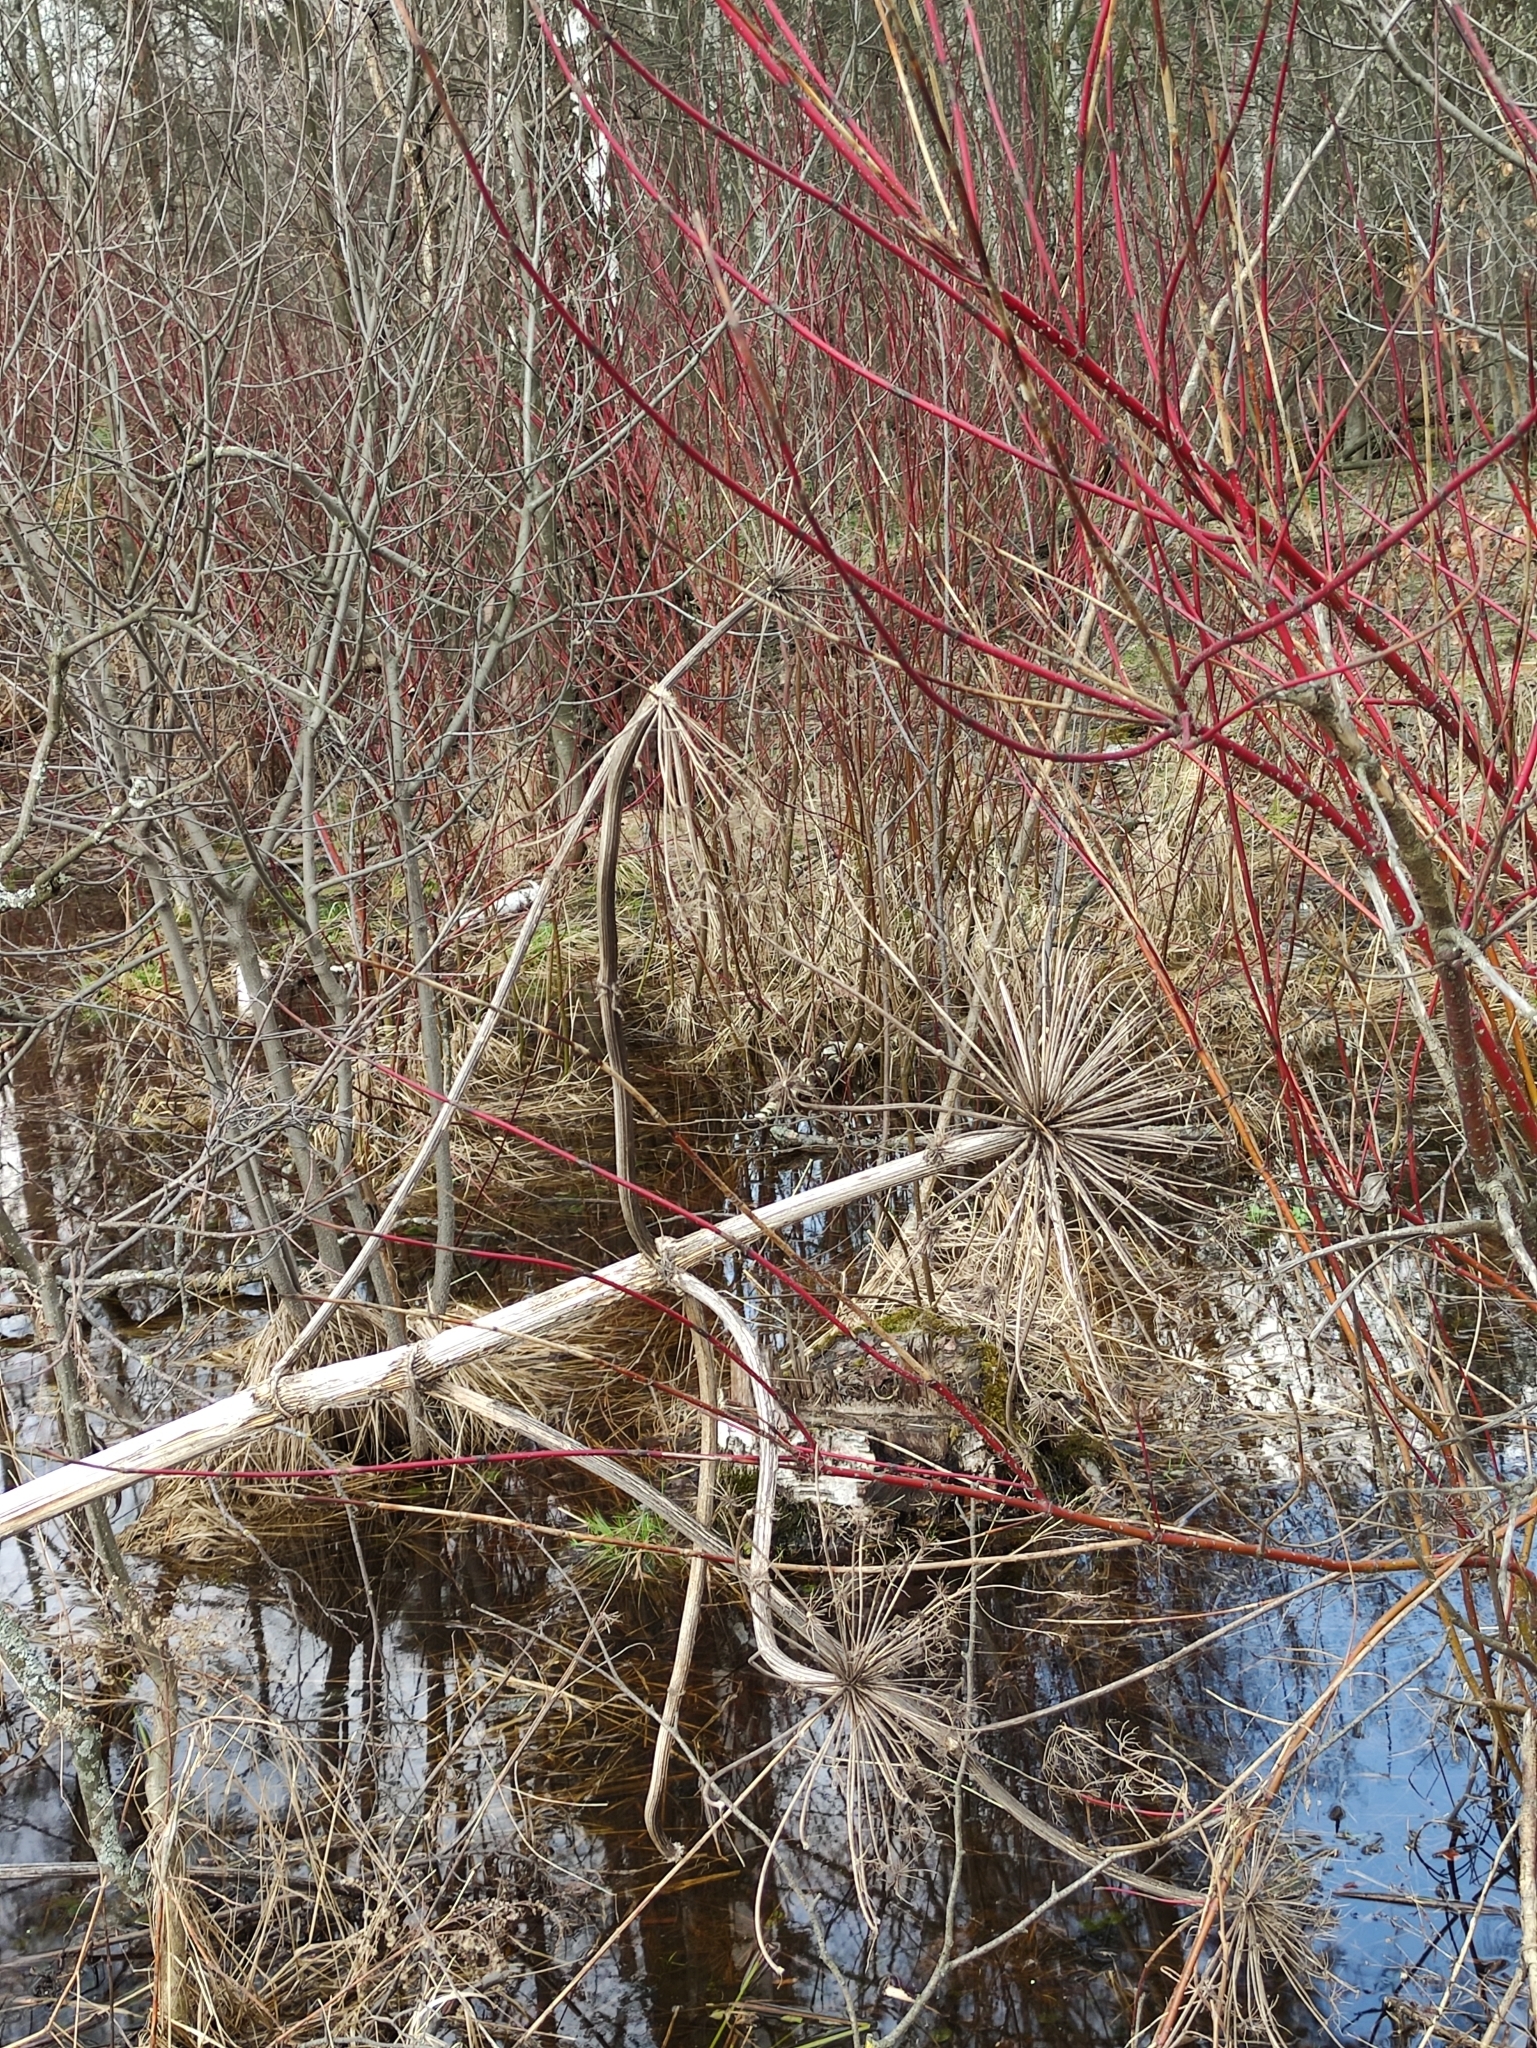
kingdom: Plantae
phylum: Tracheophyta
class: Magnoliopsida
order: Apiales
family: Apiaceae
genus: Heracleum
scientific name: Heracleum sosnowskyi
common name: Sosnowsky's hogweed
